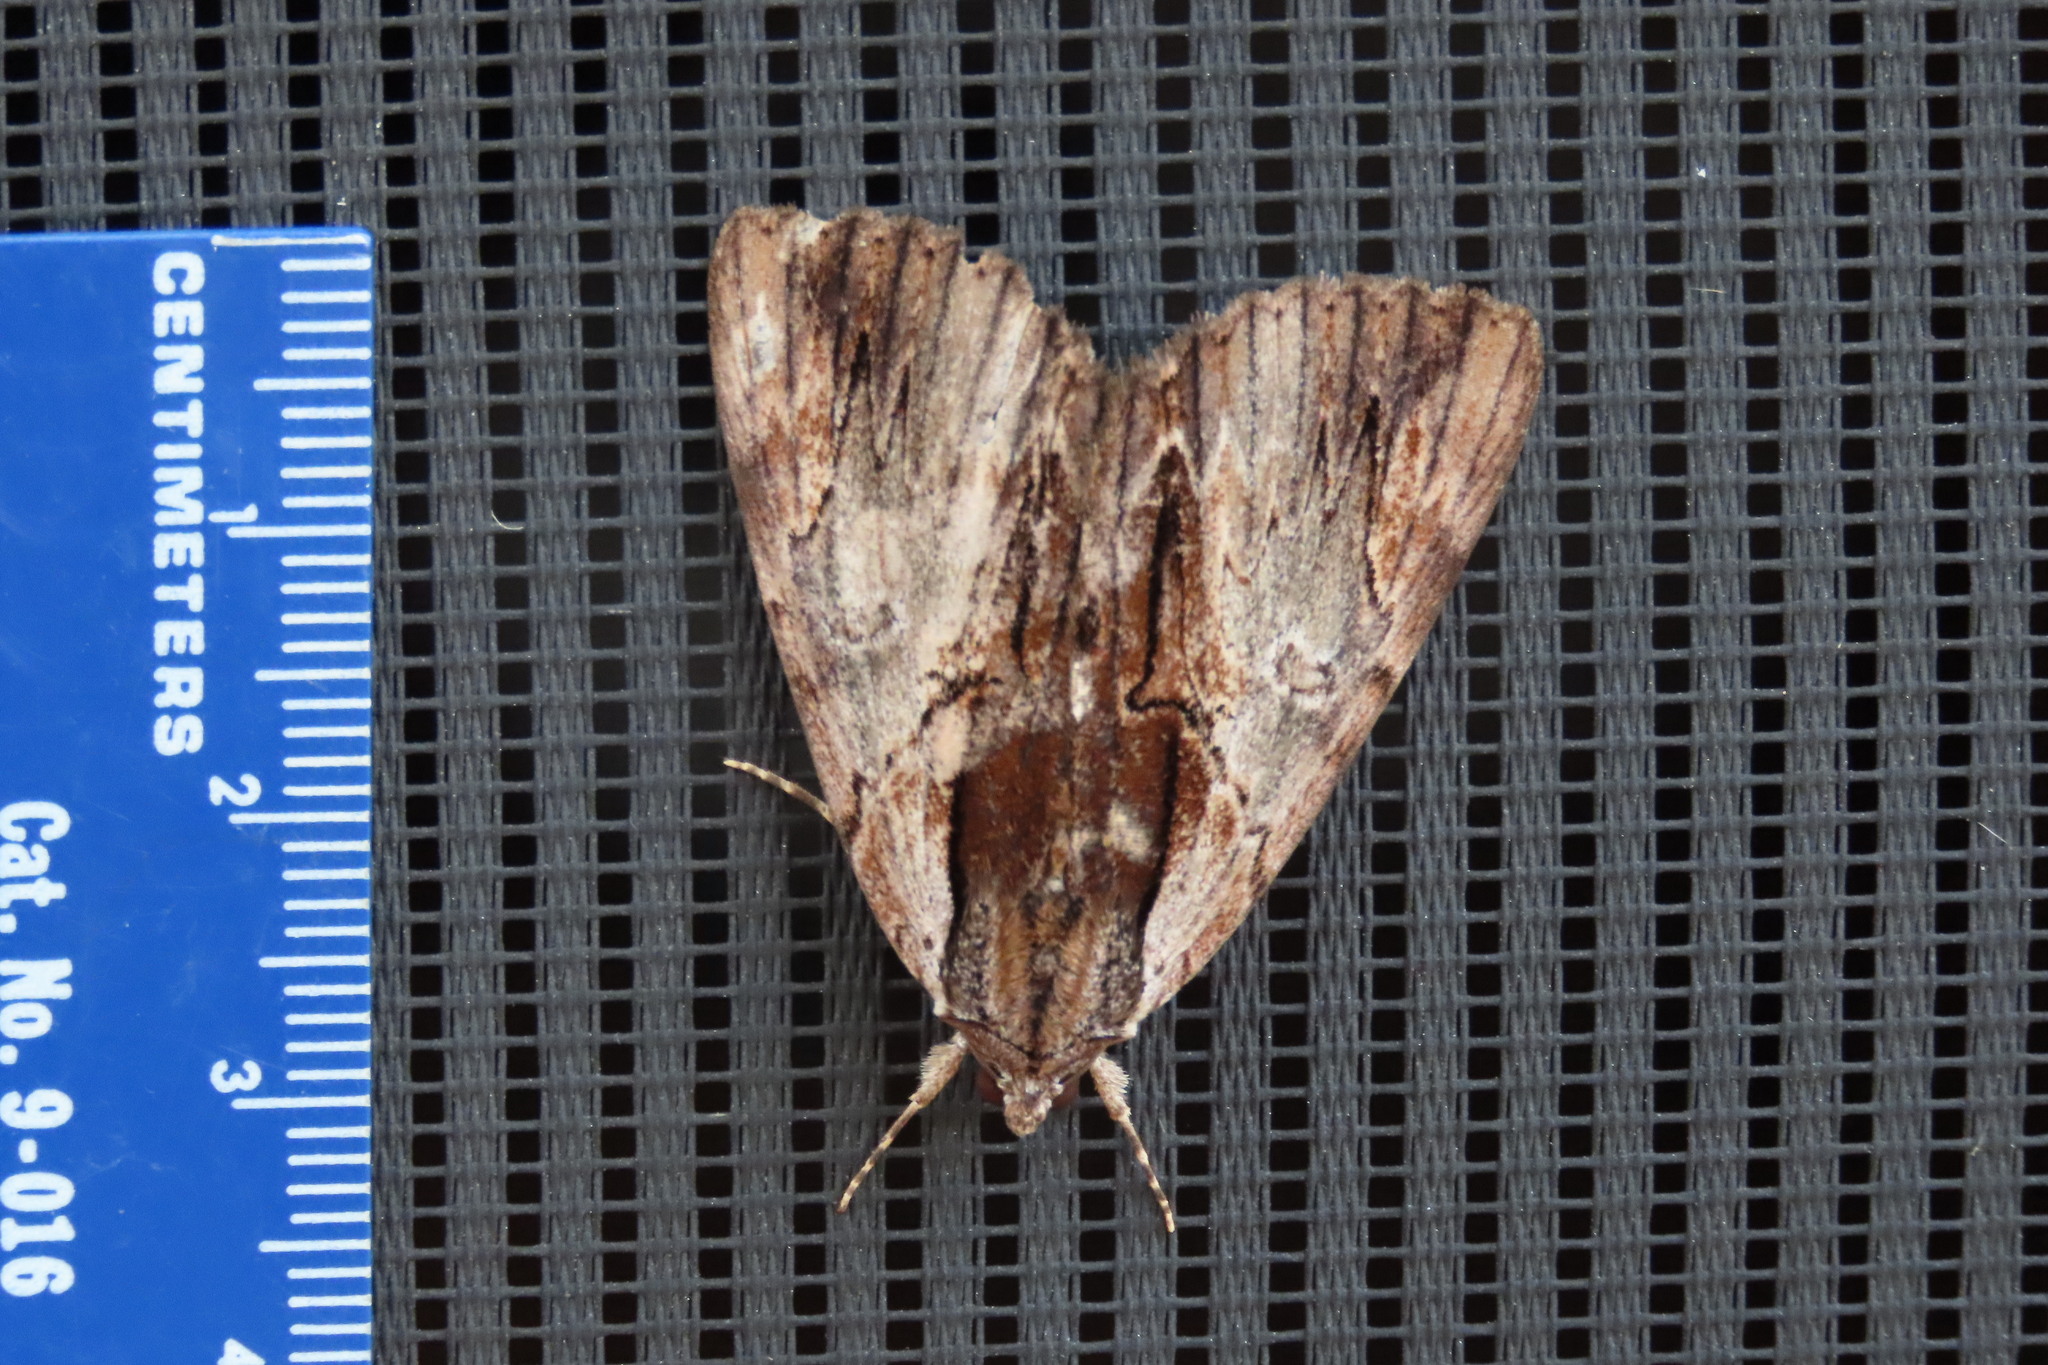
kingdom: Animalia
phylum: Arthropoda
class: Insecta
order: Lepidoptera
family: Erebidae
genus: Catocala
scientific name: Catocala ultronia
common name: Ultronia underwing
